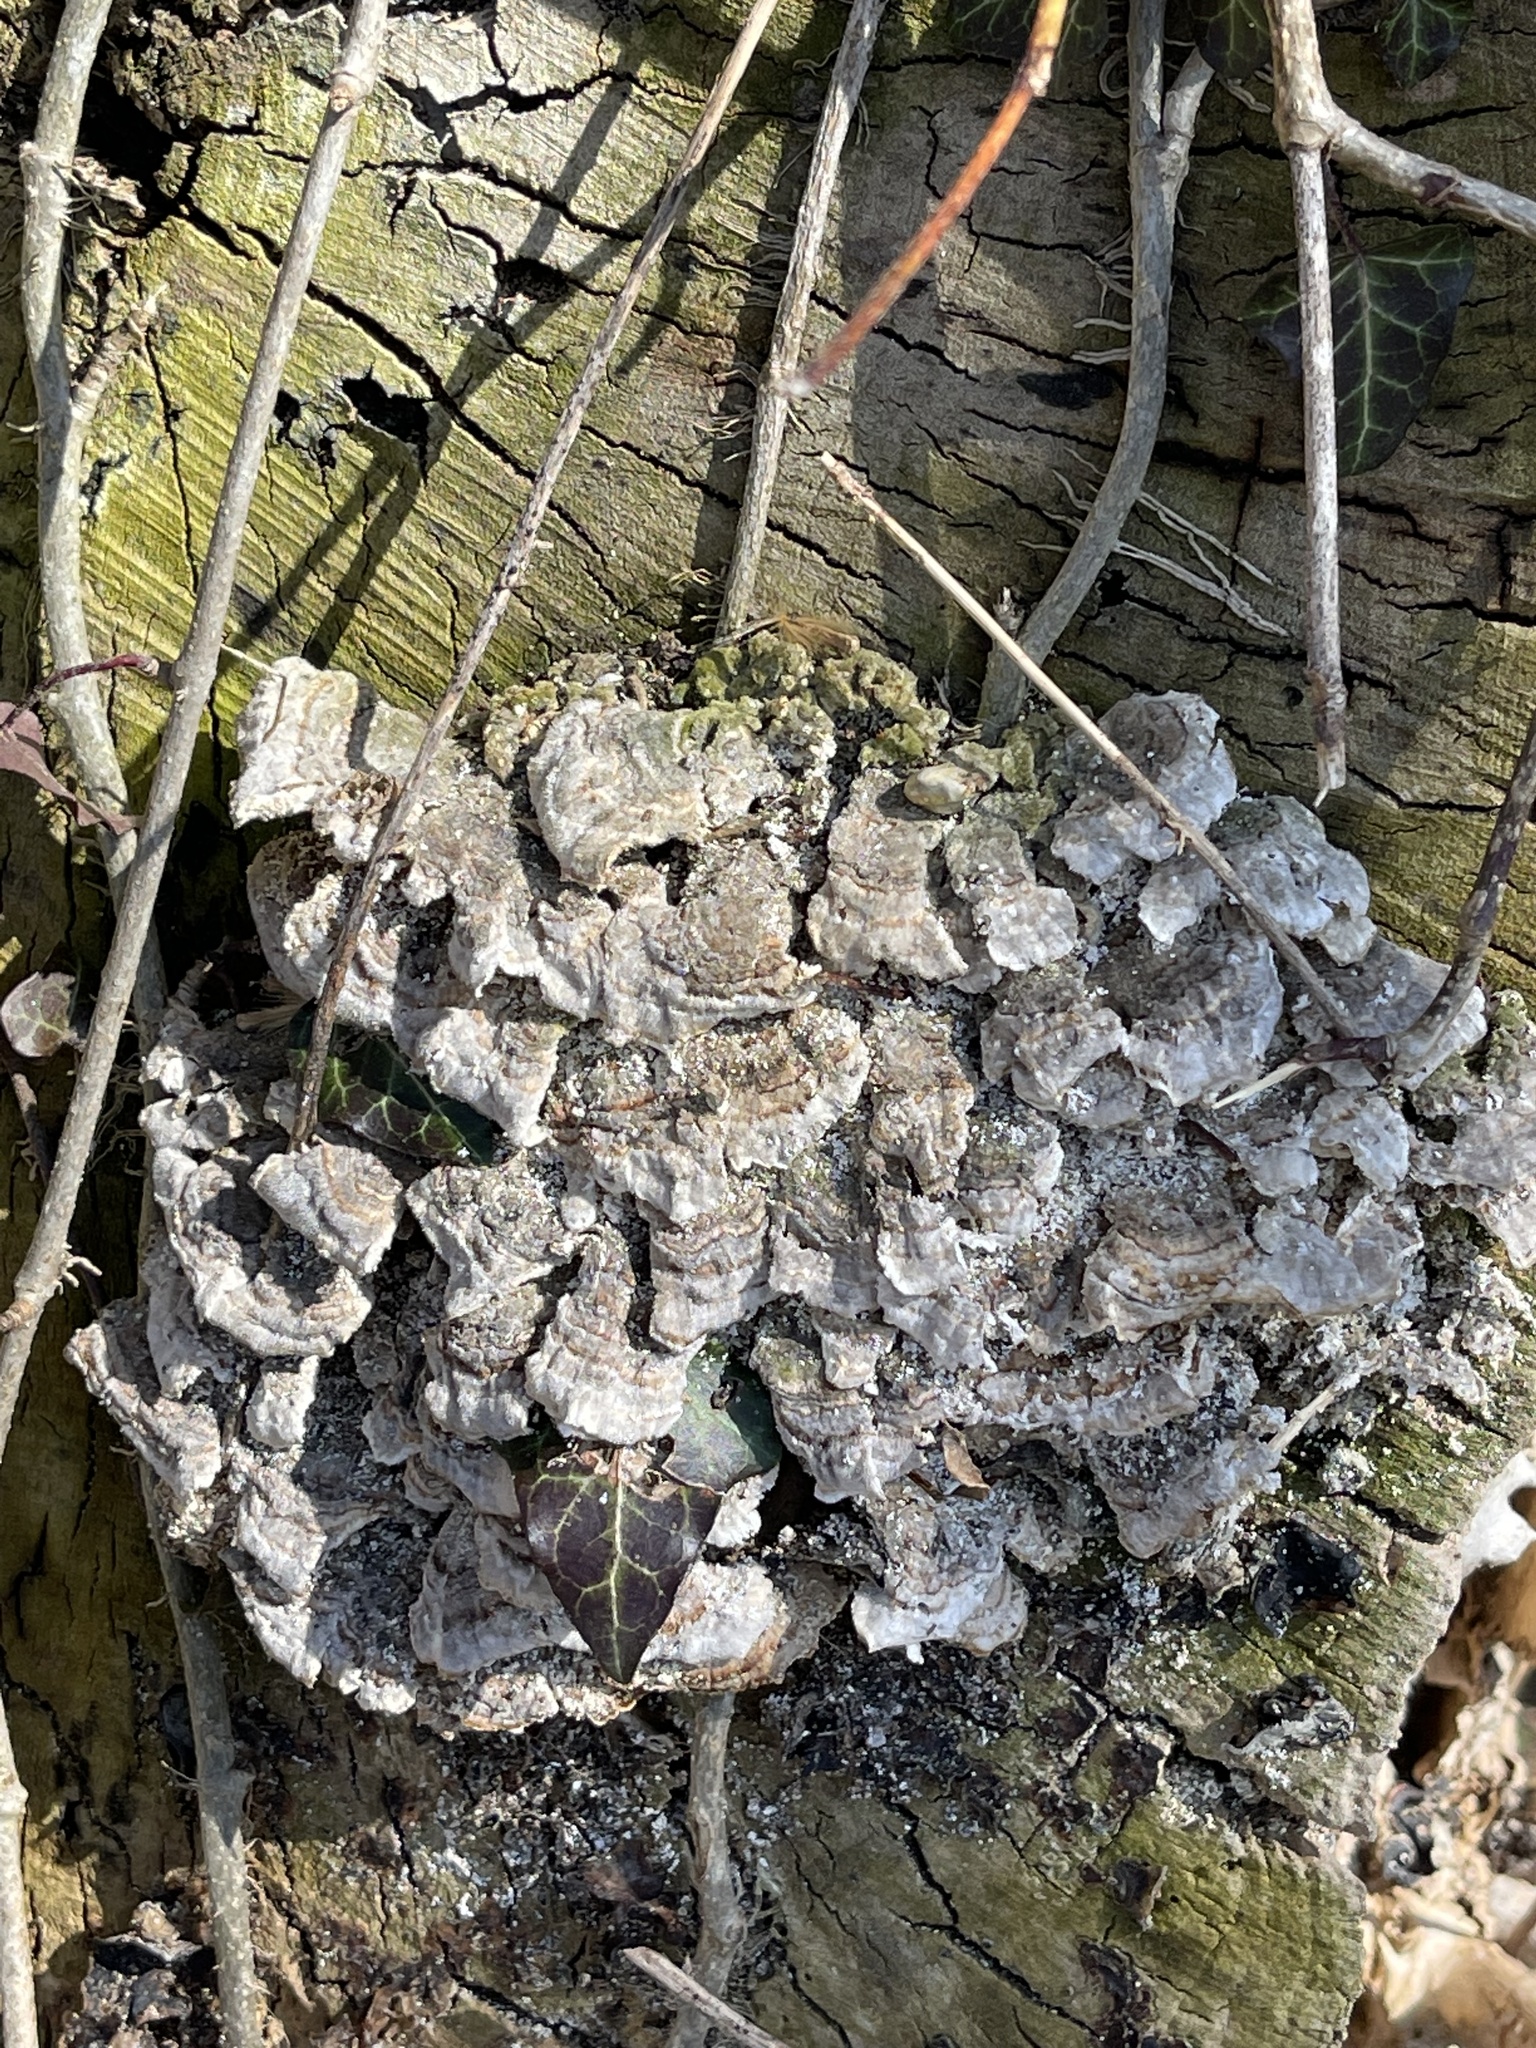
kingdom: Fungi
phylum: Basidiomycota
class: Agaricomycetes
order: Polyporales
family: Polyporaceae
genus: Trametes
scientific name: Trametes versicolor
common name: Turkeytail
